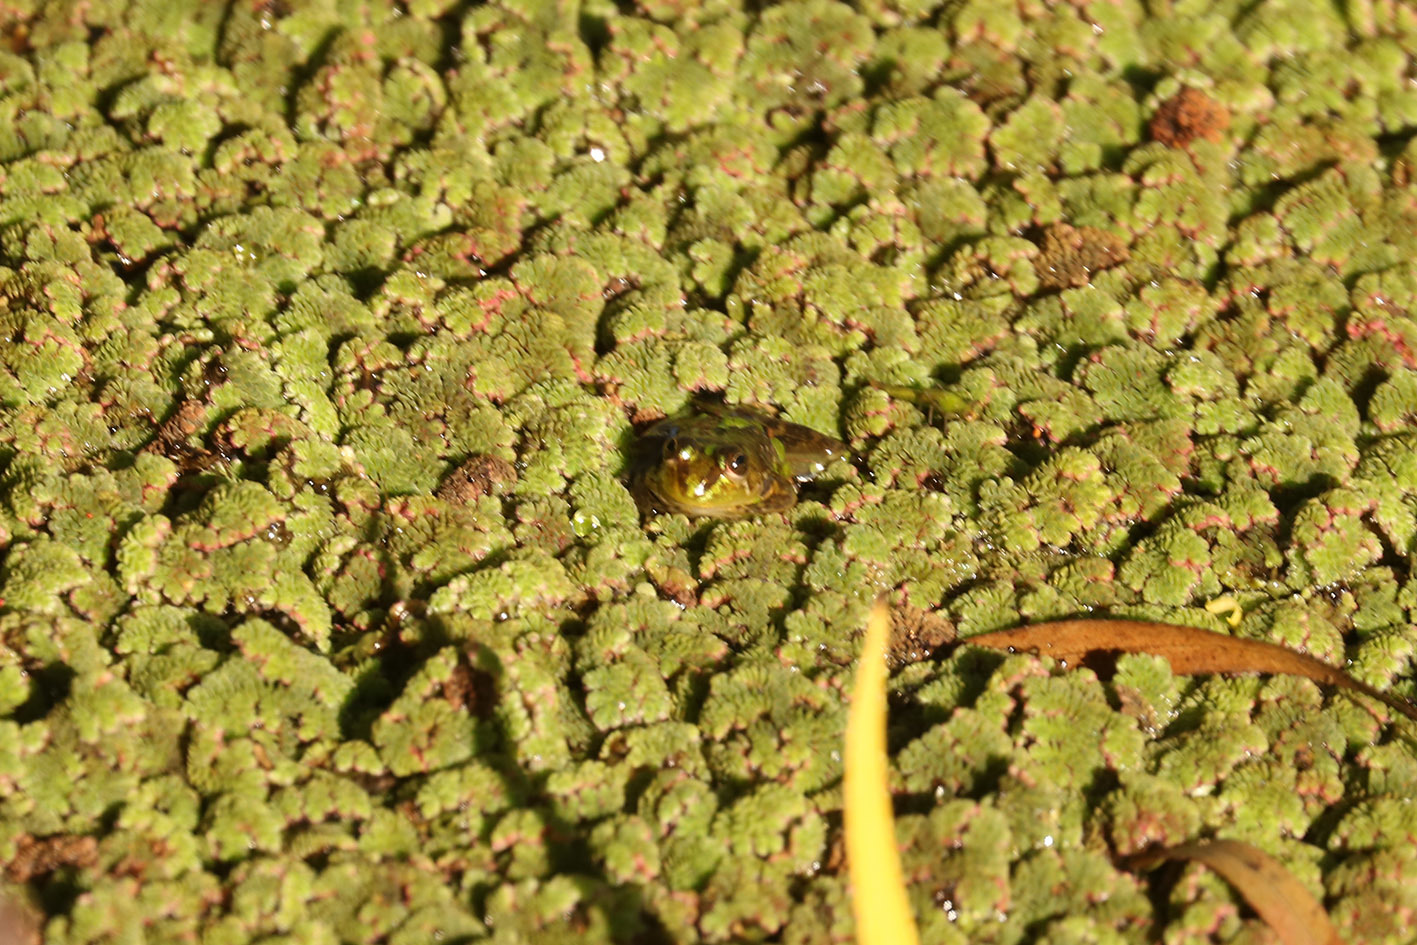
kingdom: Animalia
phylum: Chordata
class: Amphibia
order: Anura
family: Hylidae
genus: Pseudis
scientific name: Pseudis minuta
